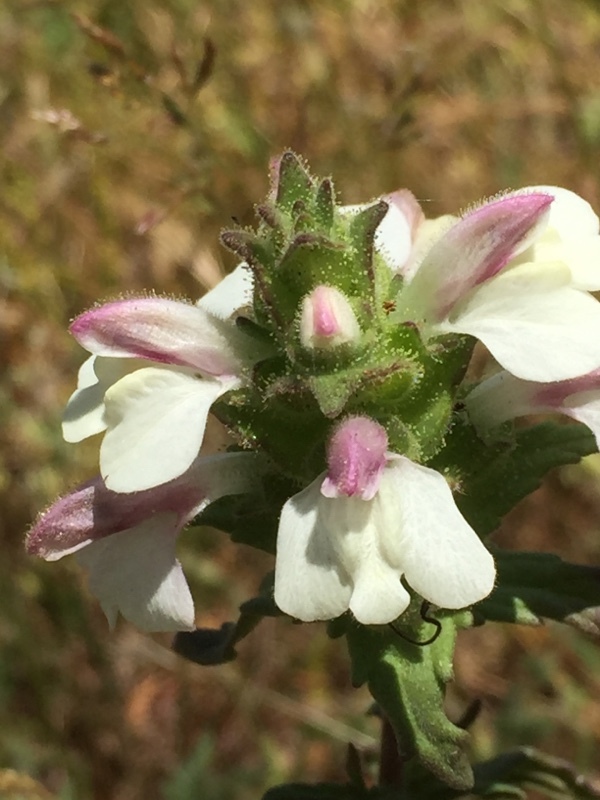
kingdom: Plantae
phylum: Tracheophyta
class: Magnoliopsida
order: Lamiales
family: Orobanchaceae
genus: Bellardia
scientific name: Bellardia trixago
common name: Mediterranean lineseed
